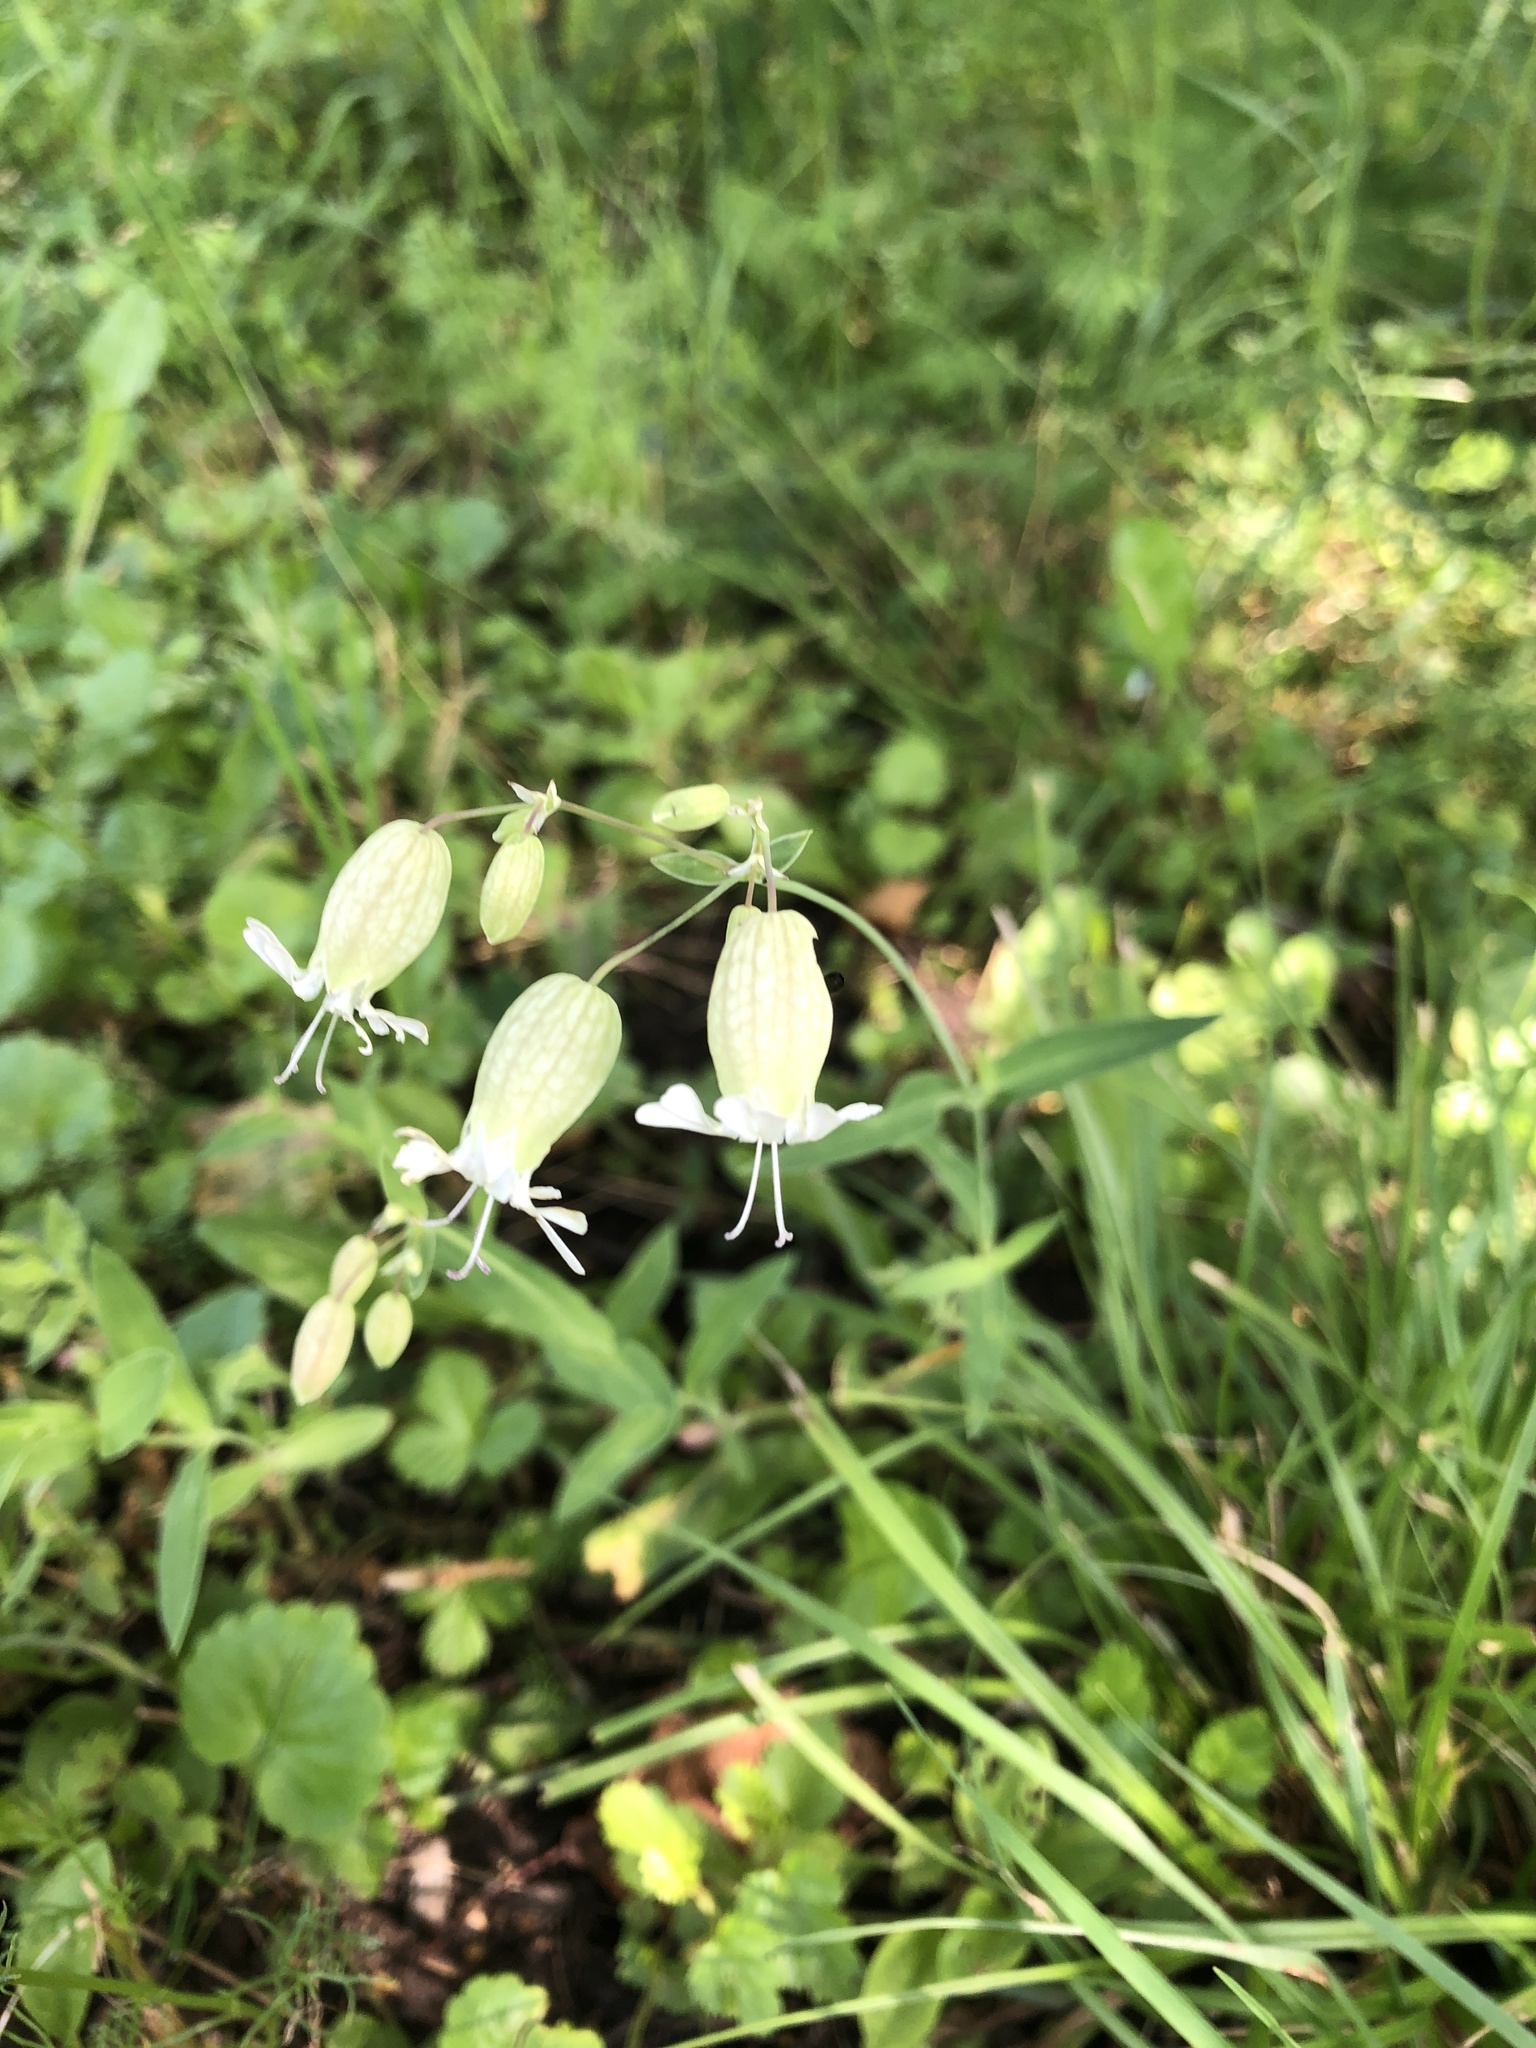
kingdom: Plantae
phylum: Tracheophyta
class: Magnoliopsida
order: Caryophyllales
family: Caryophyllaceae
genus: Silene
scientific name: Silene vulgaris
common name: Bladder campion
